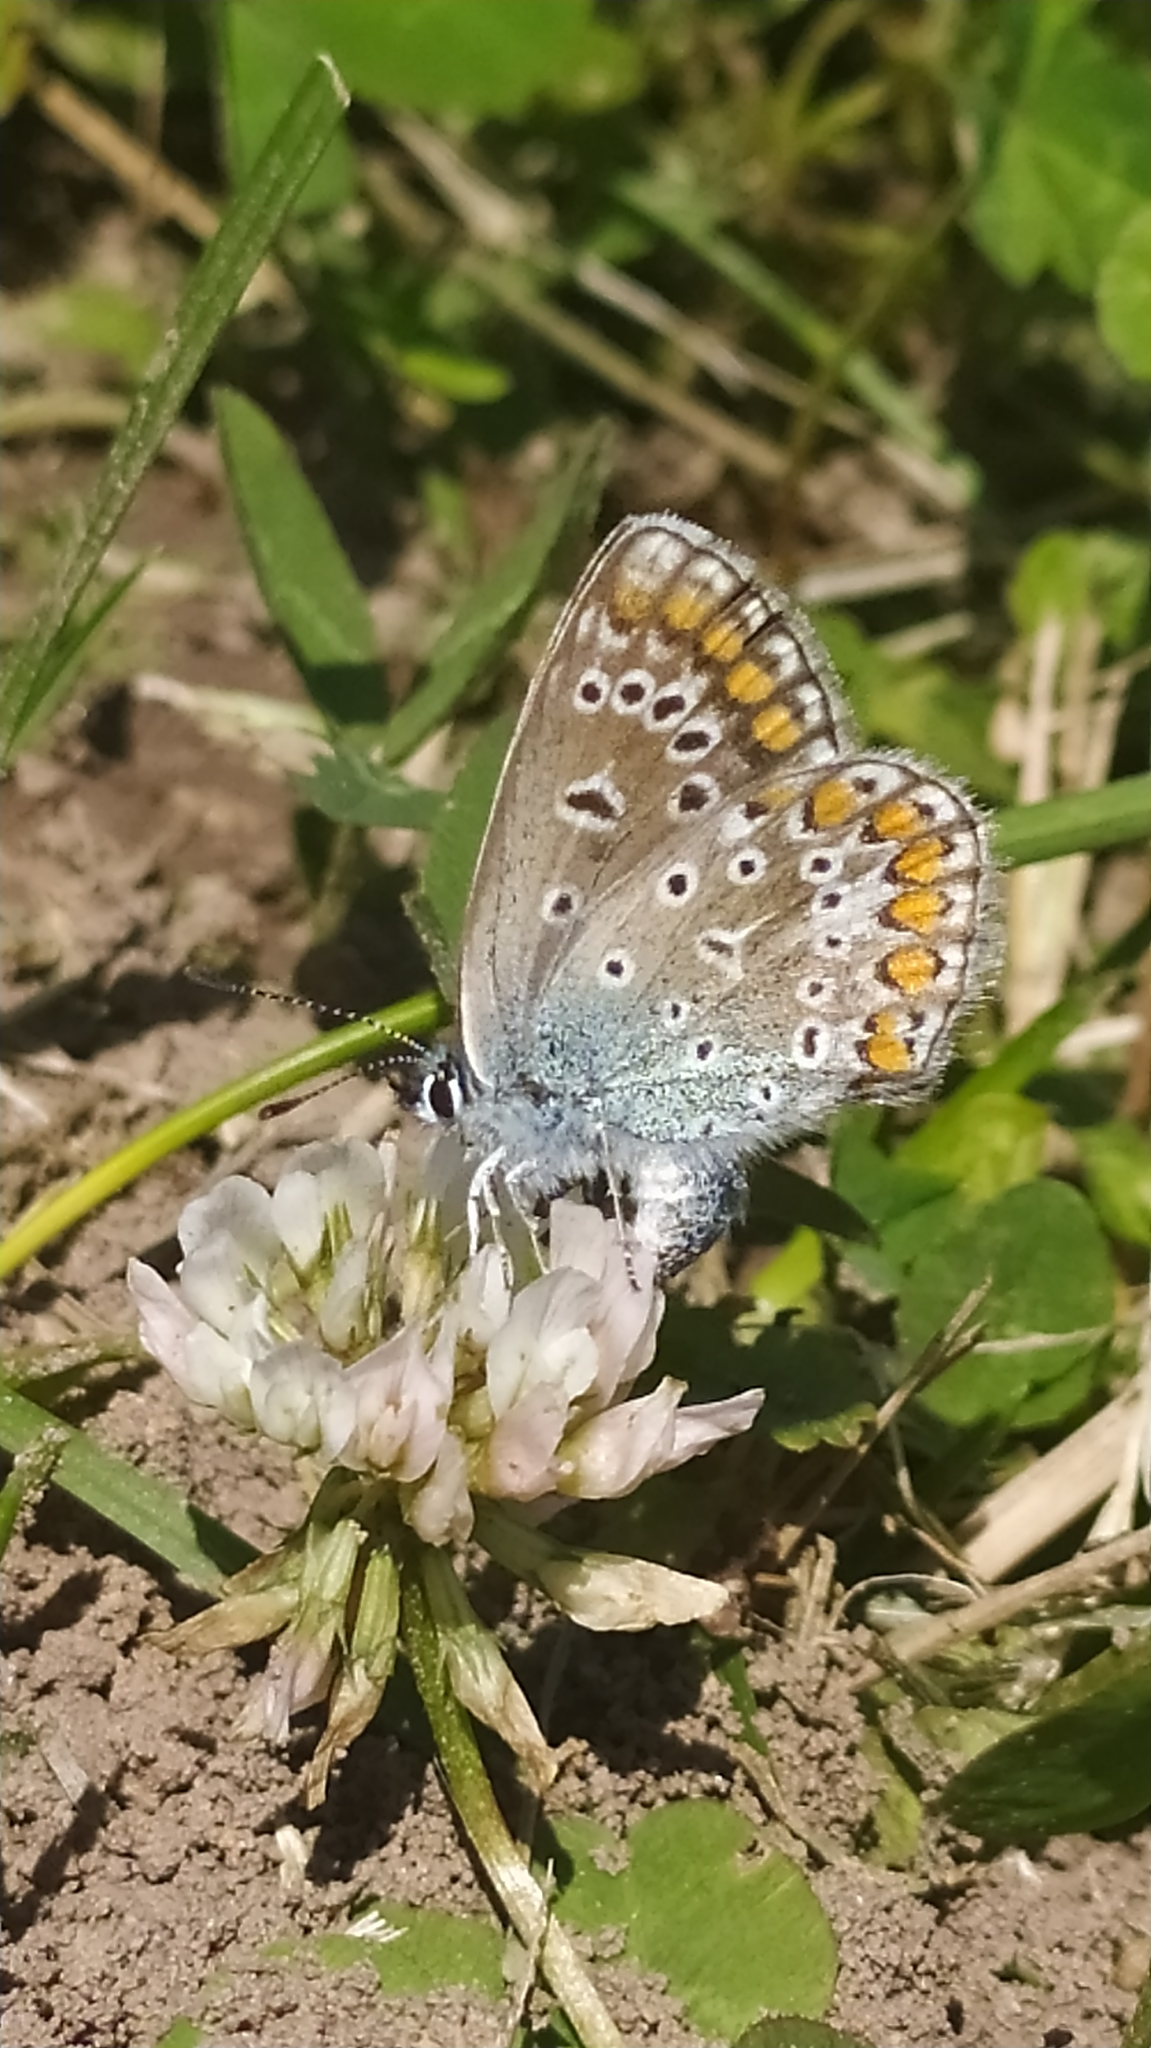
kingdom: Animalia
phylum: Arthropoda
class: Insecta
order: Lepidoptera
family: Lycaenidae
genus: Polyommatus
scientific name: Polyommatus icarus
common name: Common blue
